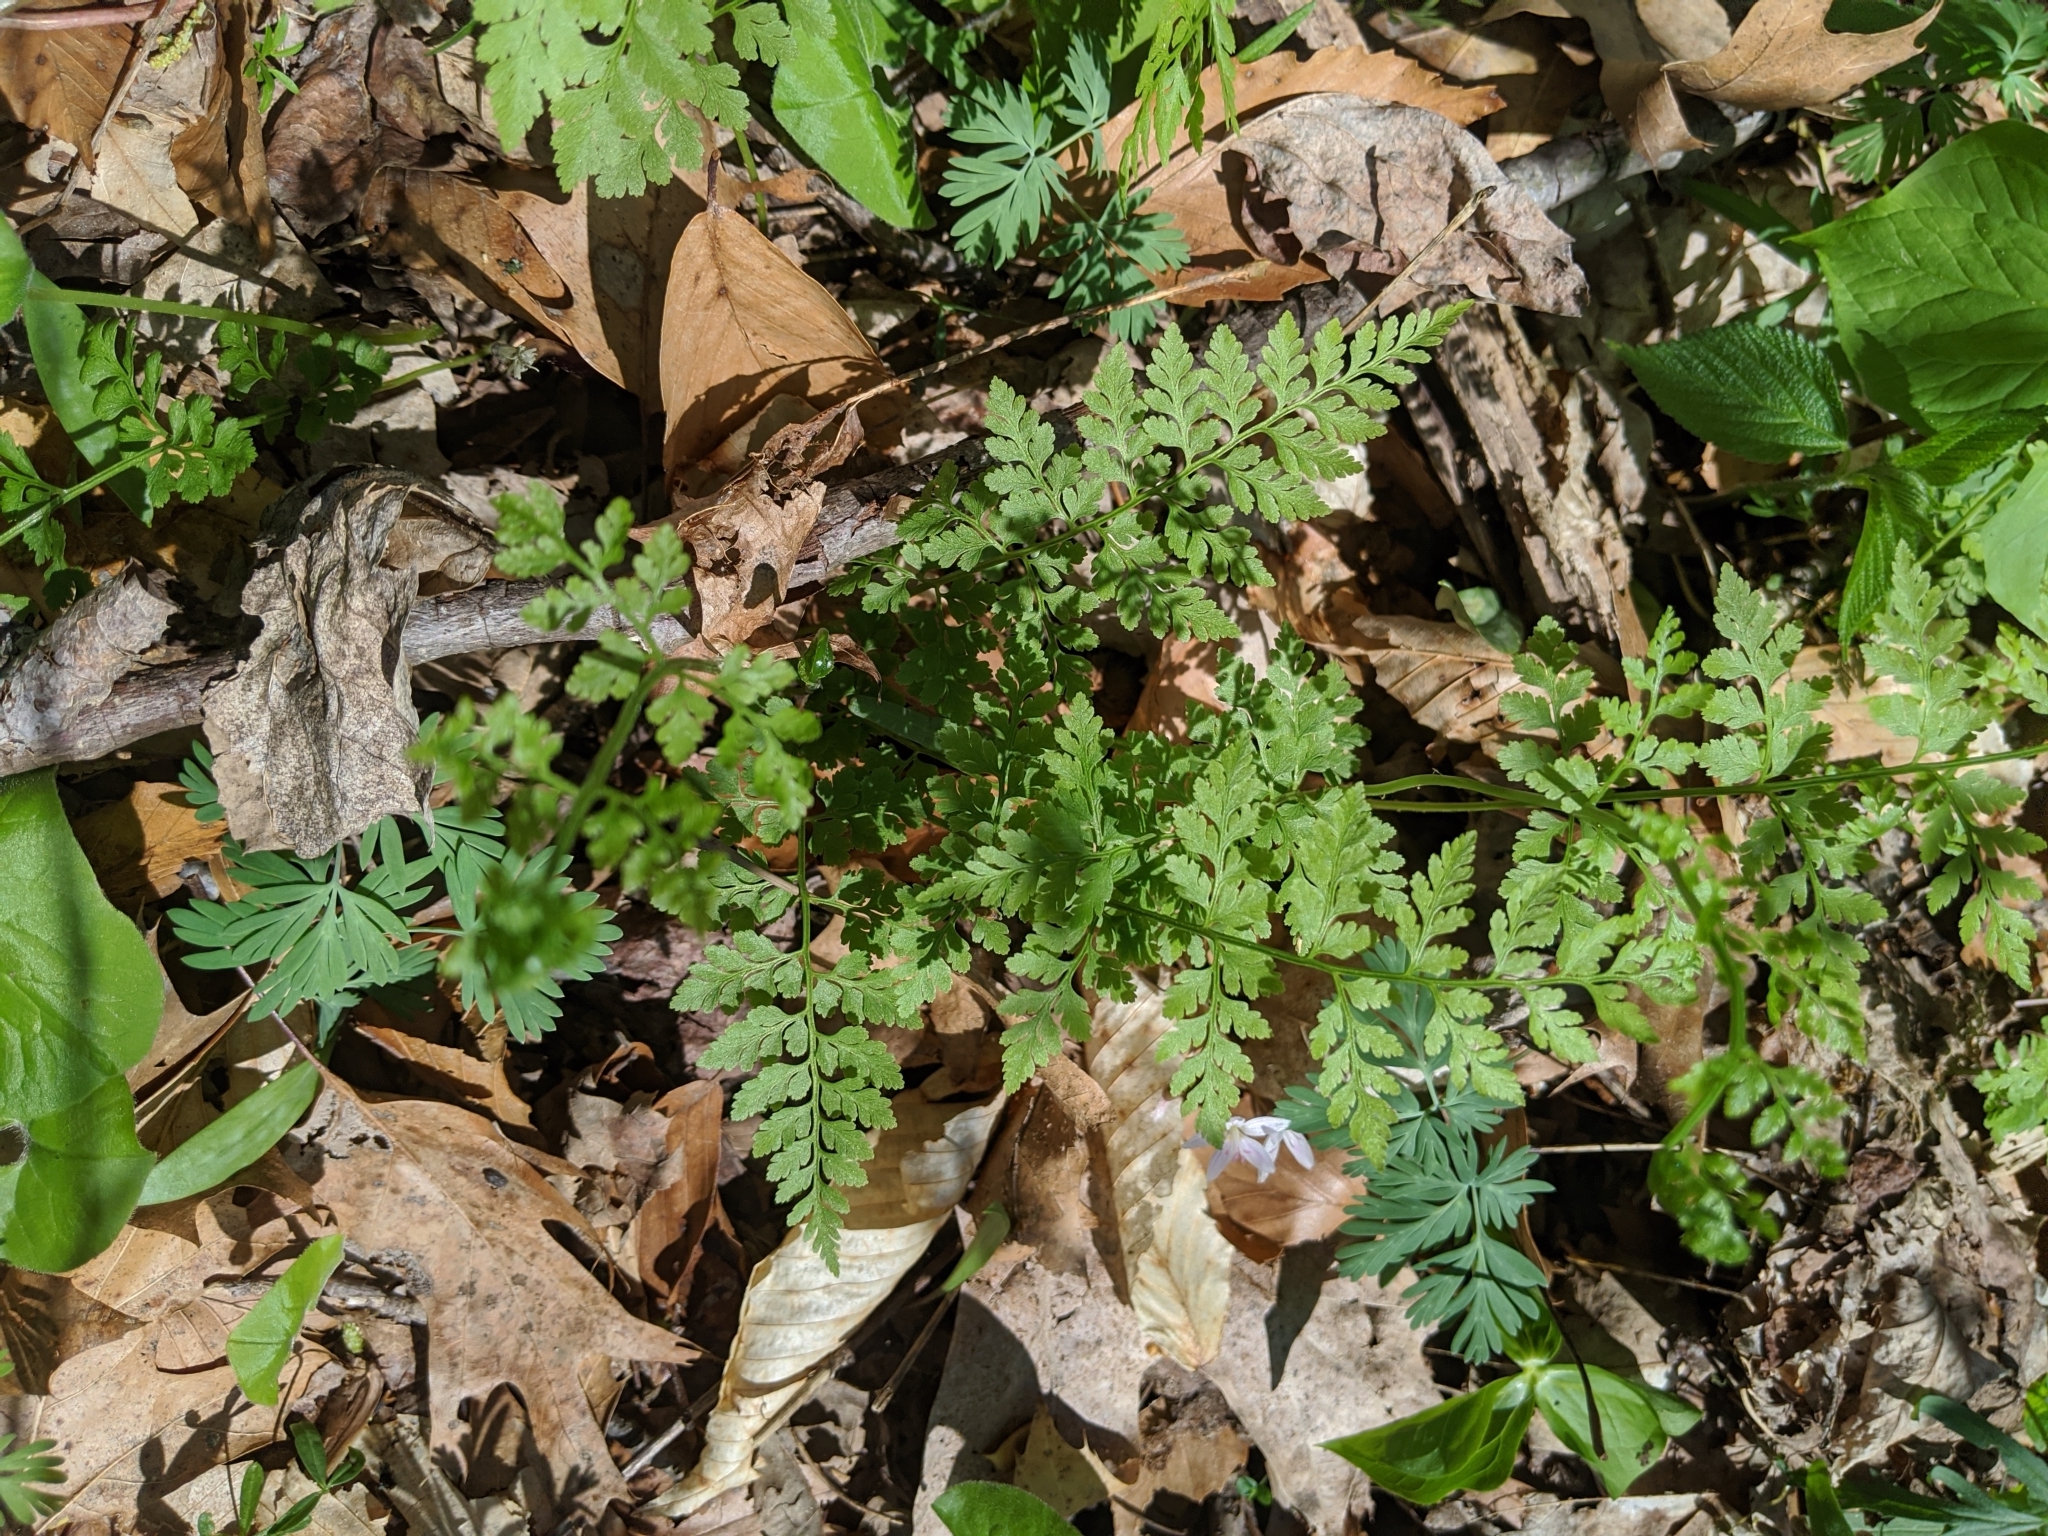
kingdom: Plantae
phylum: Tracheophyta
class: Polypodiopsida
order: Polypodiales
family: Cystopteridaceae
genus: Cystopteris
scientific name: Cystopteris protrusa
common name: Lowland brittle fern
